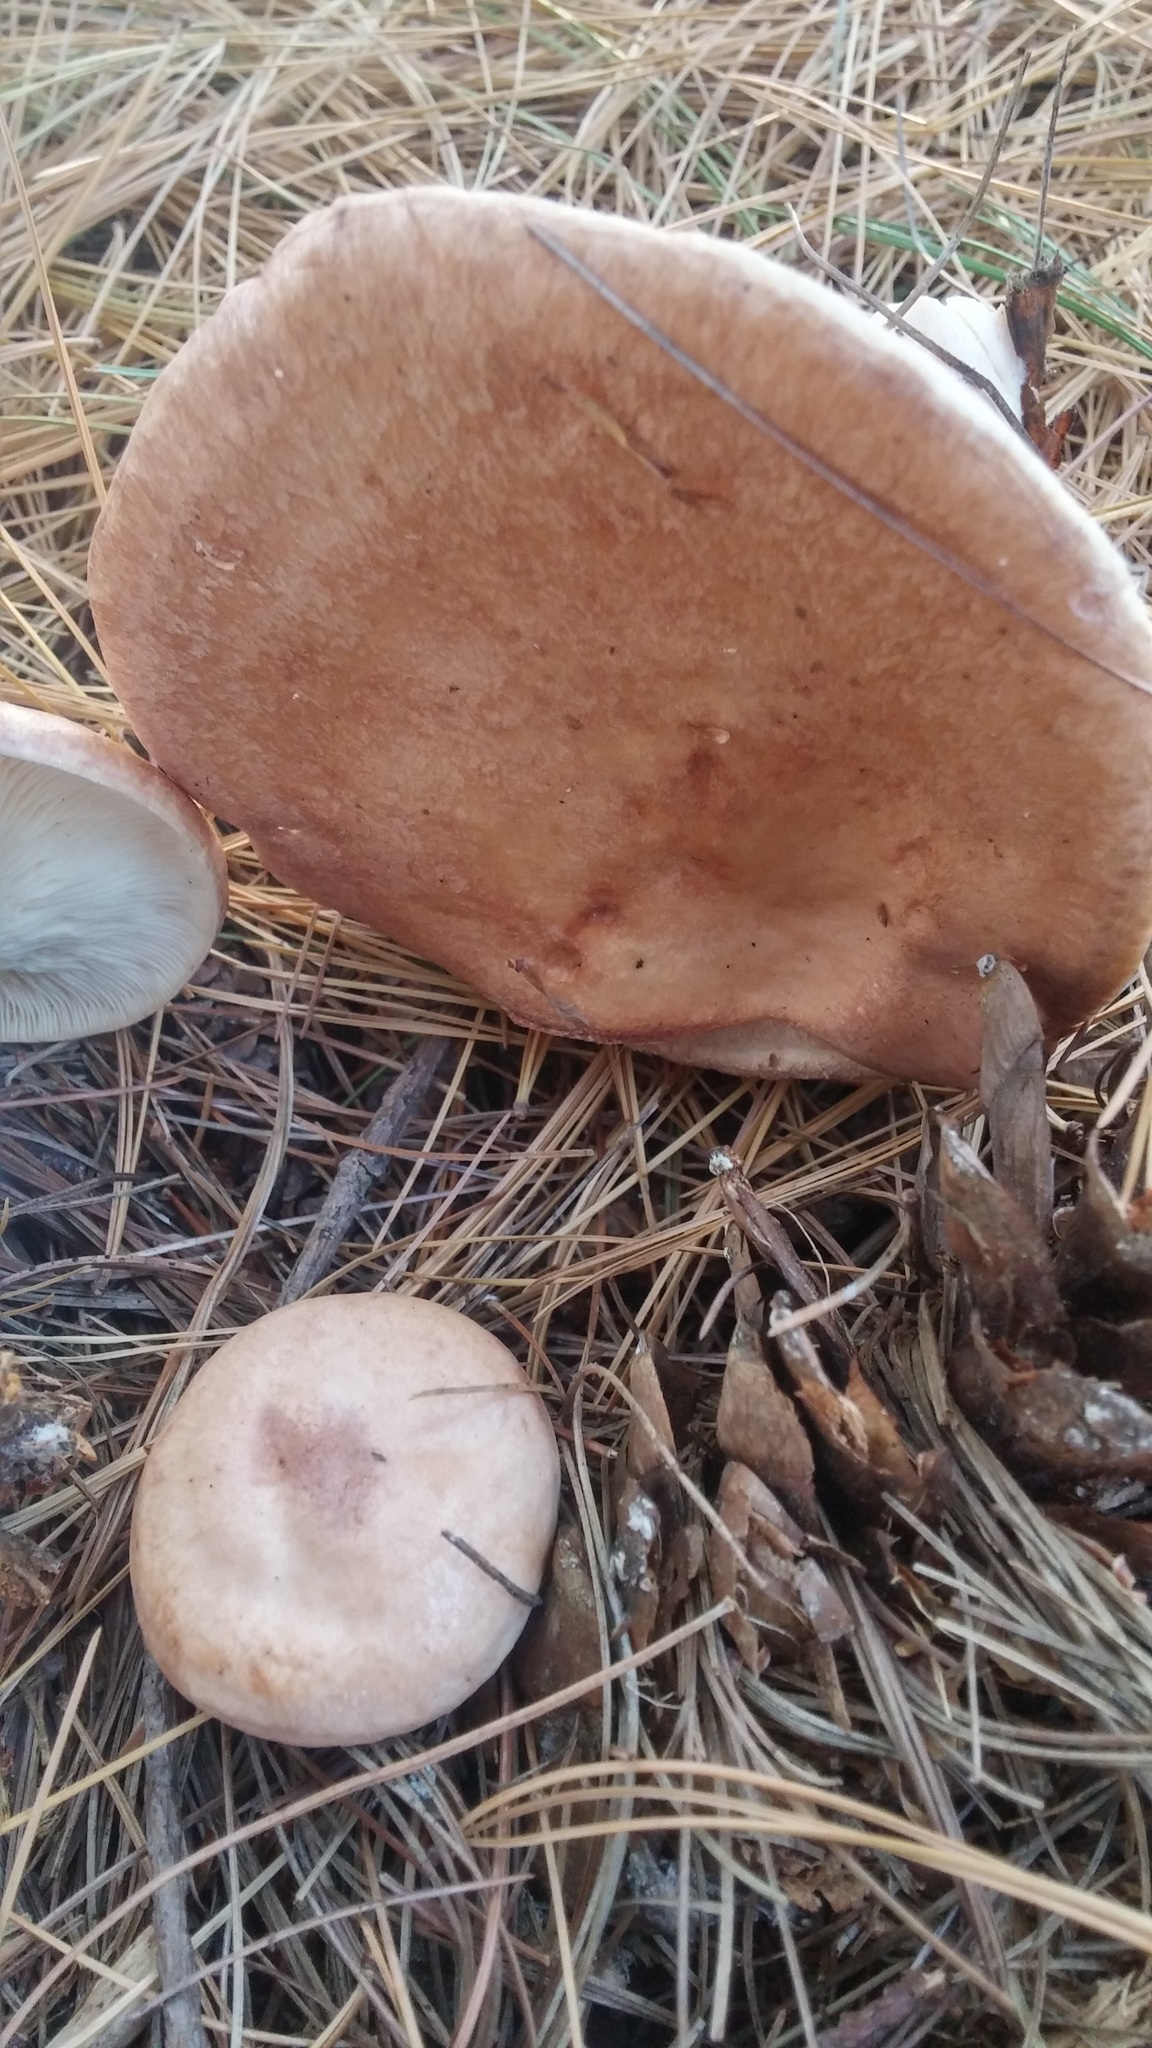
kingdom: Fungi
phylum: Basidiomycota
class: Agaricomycetes
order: Russulales
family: Russulaceae
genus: Lactarius
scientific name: Lactarius imperceptus
